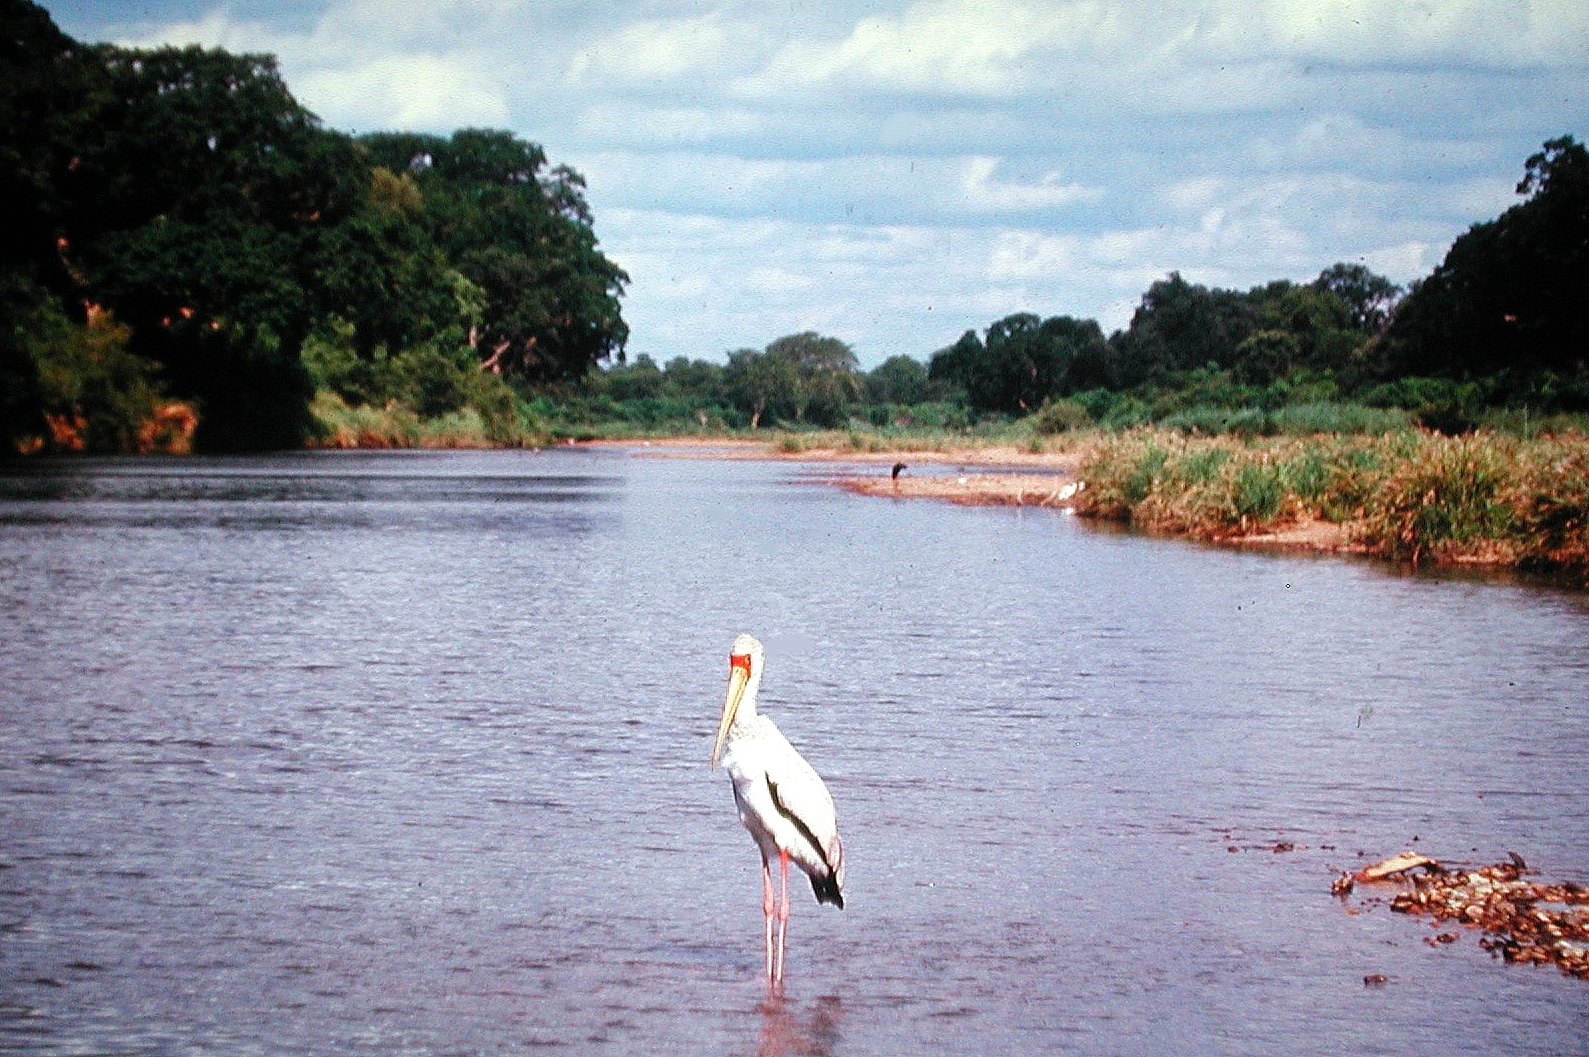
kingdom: Animalia
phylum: Chordata
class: Aves
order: Ciconiiformes
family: Ciconiidae
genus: Mycteria
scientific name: Mycteria ibis
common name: Yellow-billed stork
